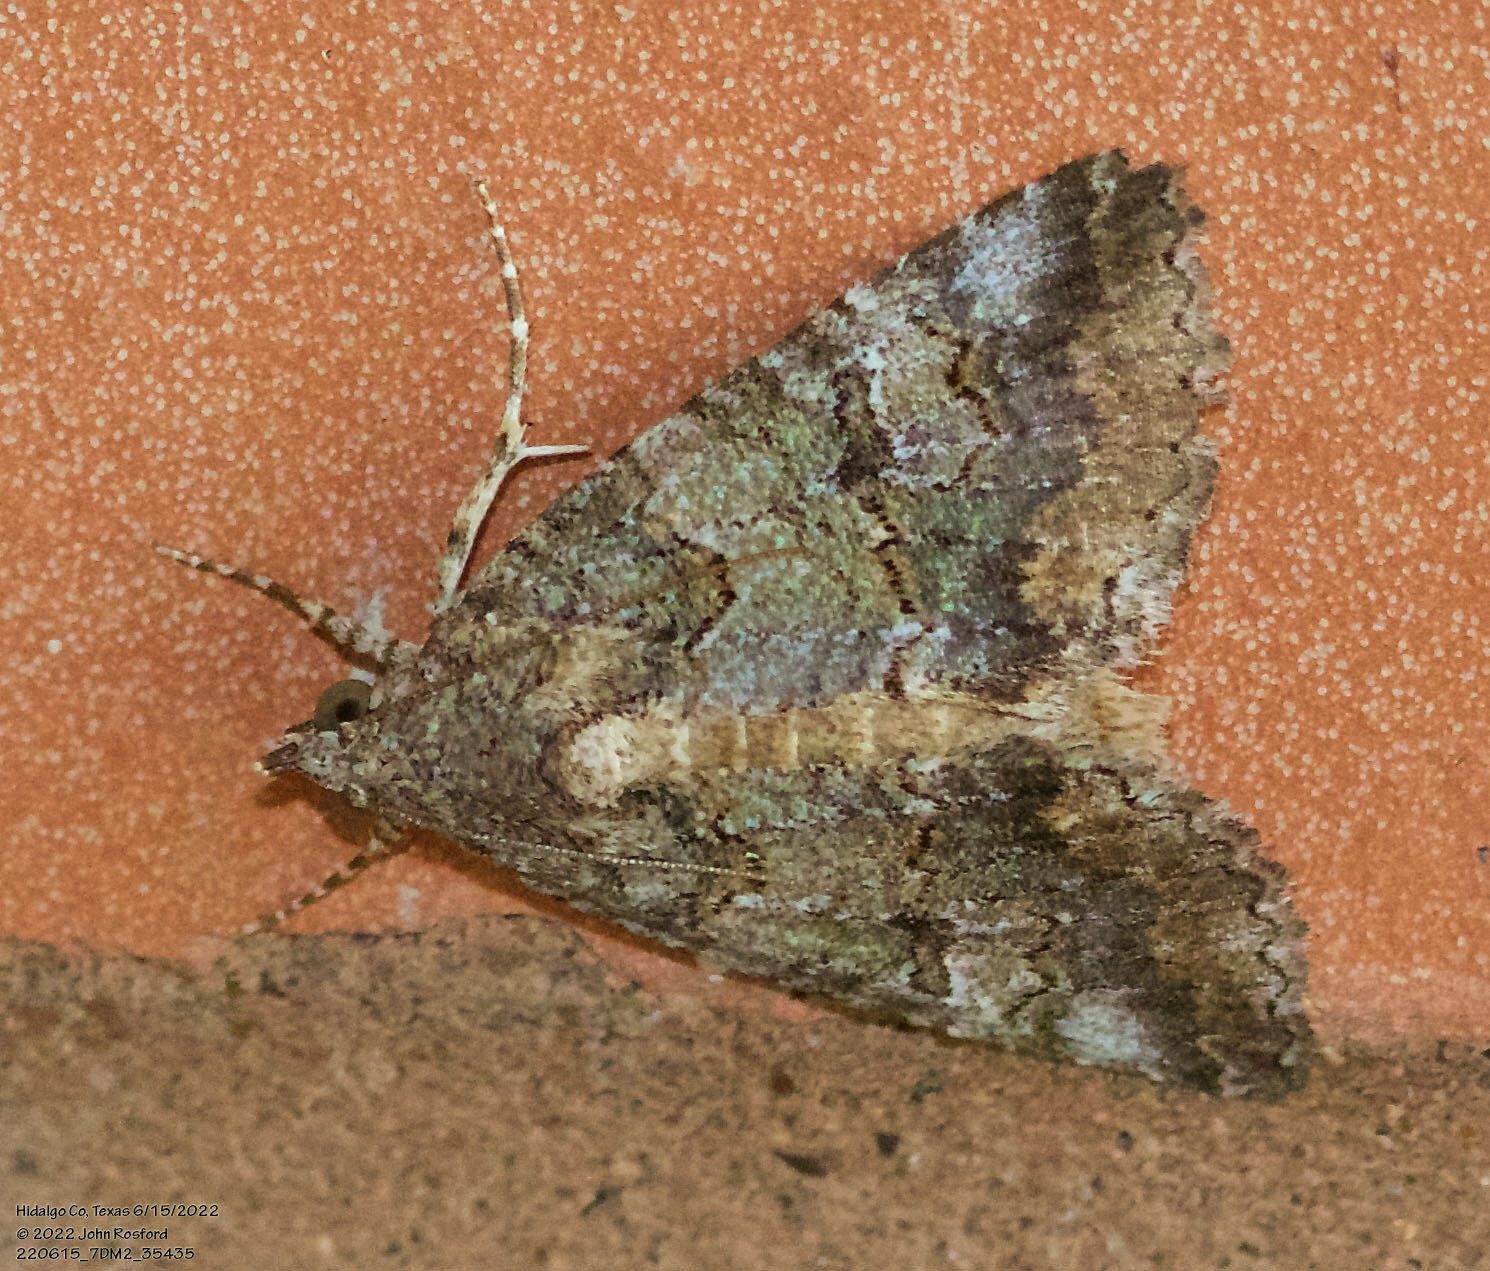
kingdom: Animalia
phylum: Arthropoda
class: Insecta
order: Lepidoptera
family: Erebidae
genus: Eubolina
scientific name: Eubolina impartialis
